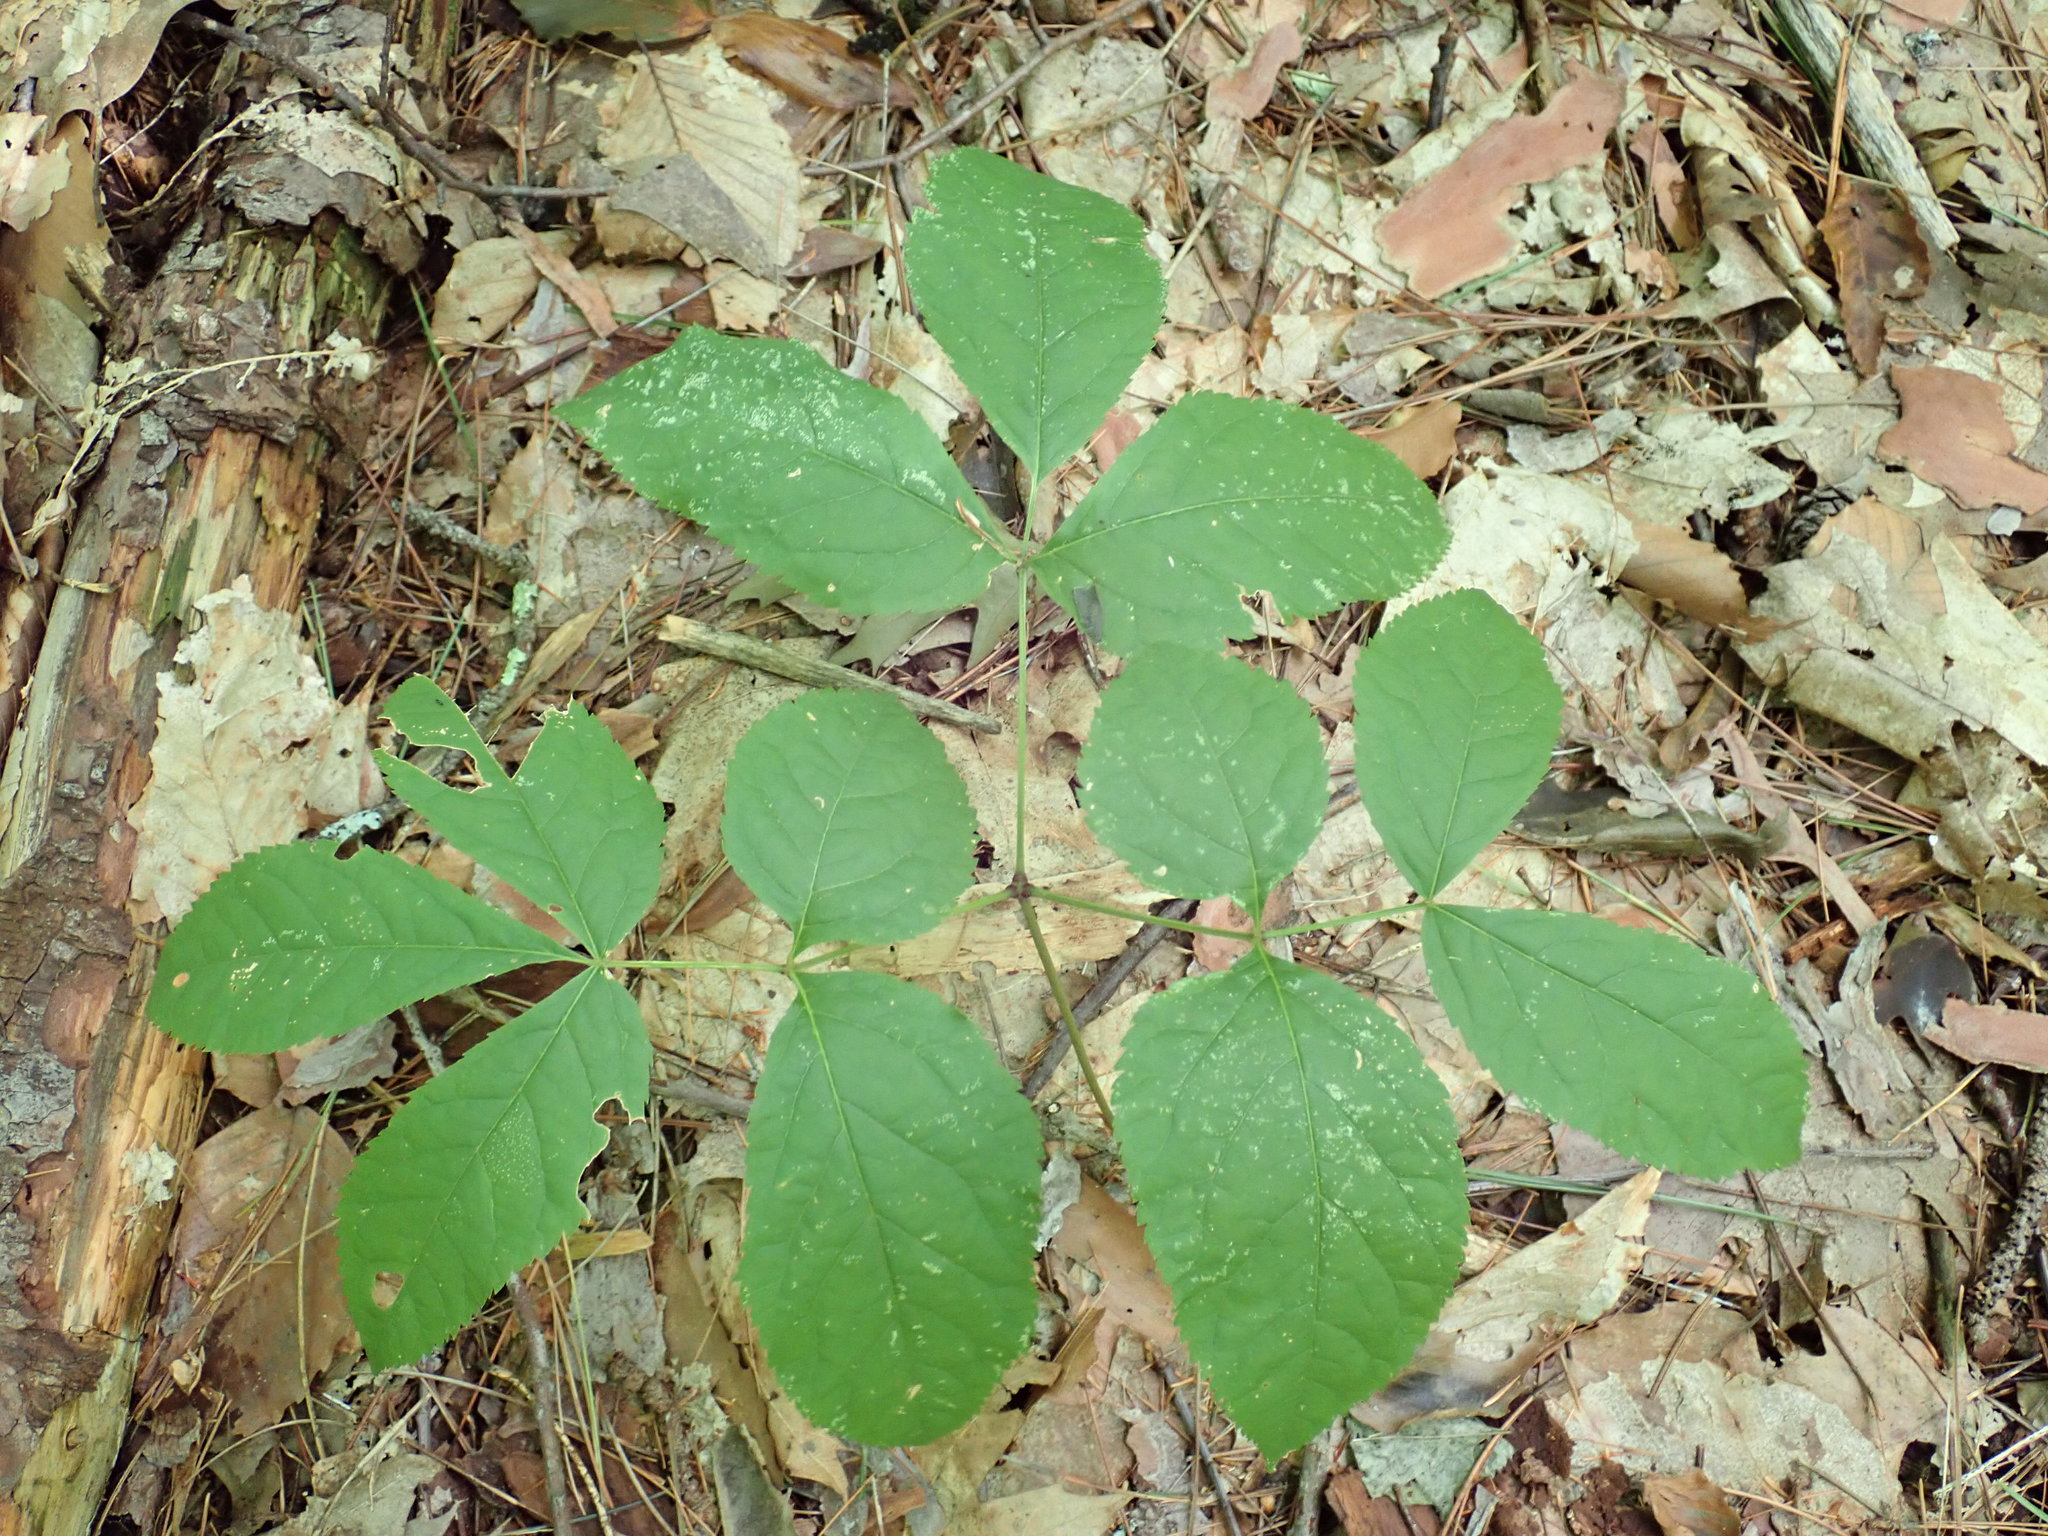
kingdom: Plantae
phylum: Tracheophyta
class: Magnoliopsida
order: Apiales
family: Araliaceae
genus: Aralia
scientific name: Aralia nudicaulis
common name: Wild sarsaparilla
